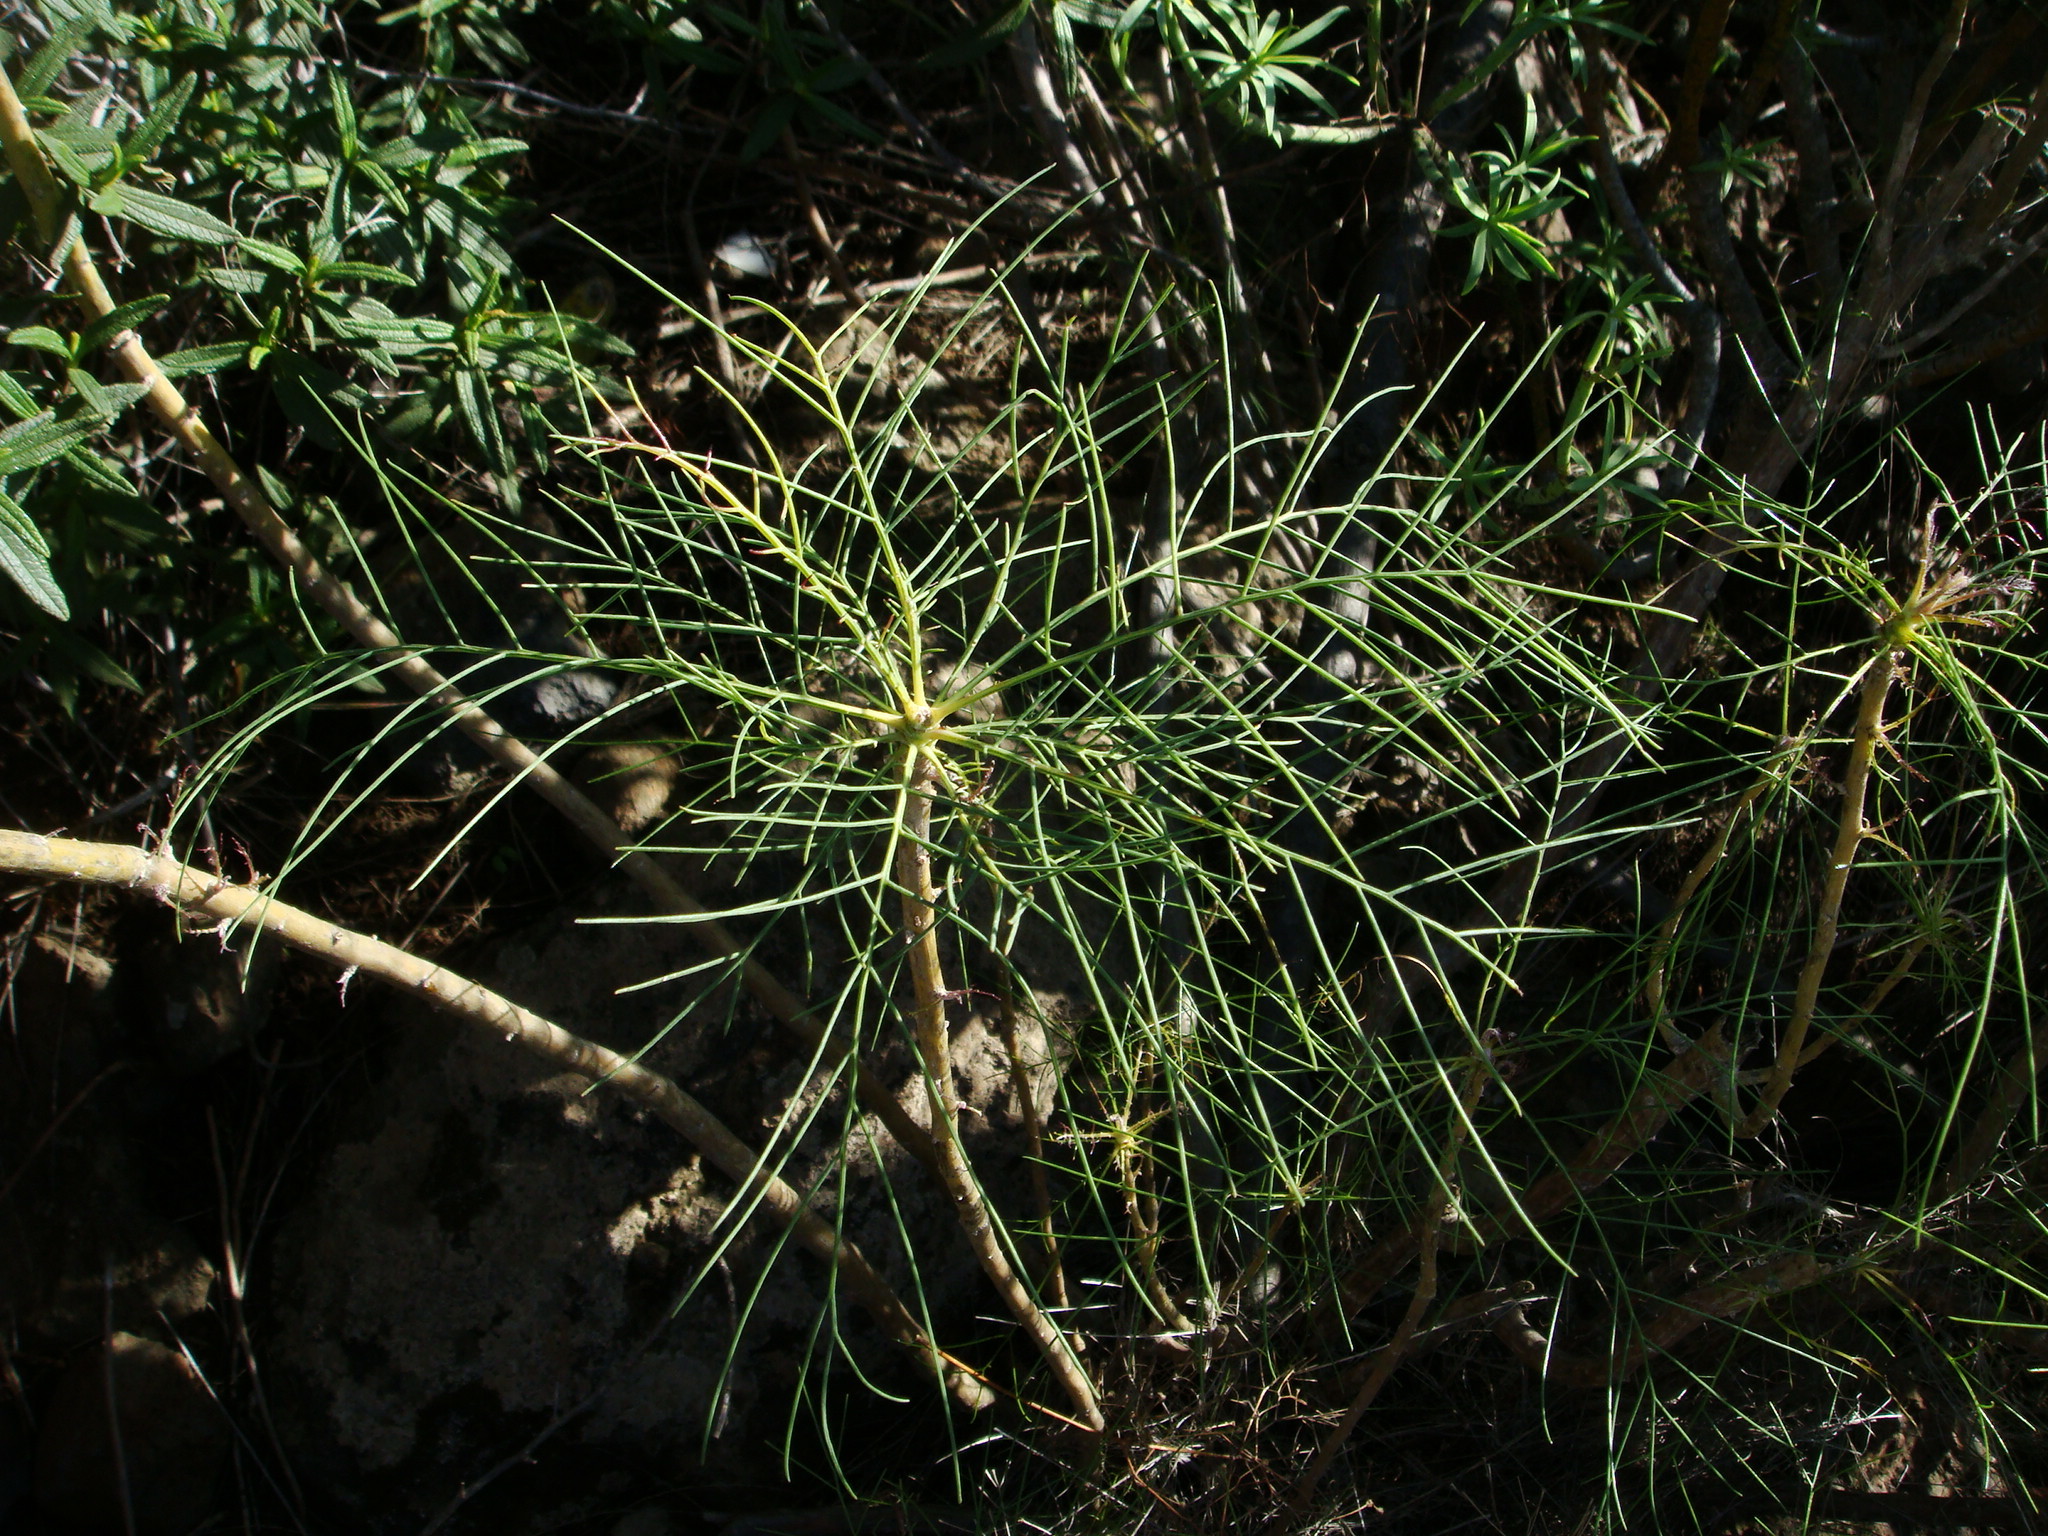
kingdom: Plantae
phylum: Tracheophyta
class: Magnoliopsida
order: Asterales
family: Asteraceae
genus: Sonchus
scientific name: Sonchus leptocephalus
